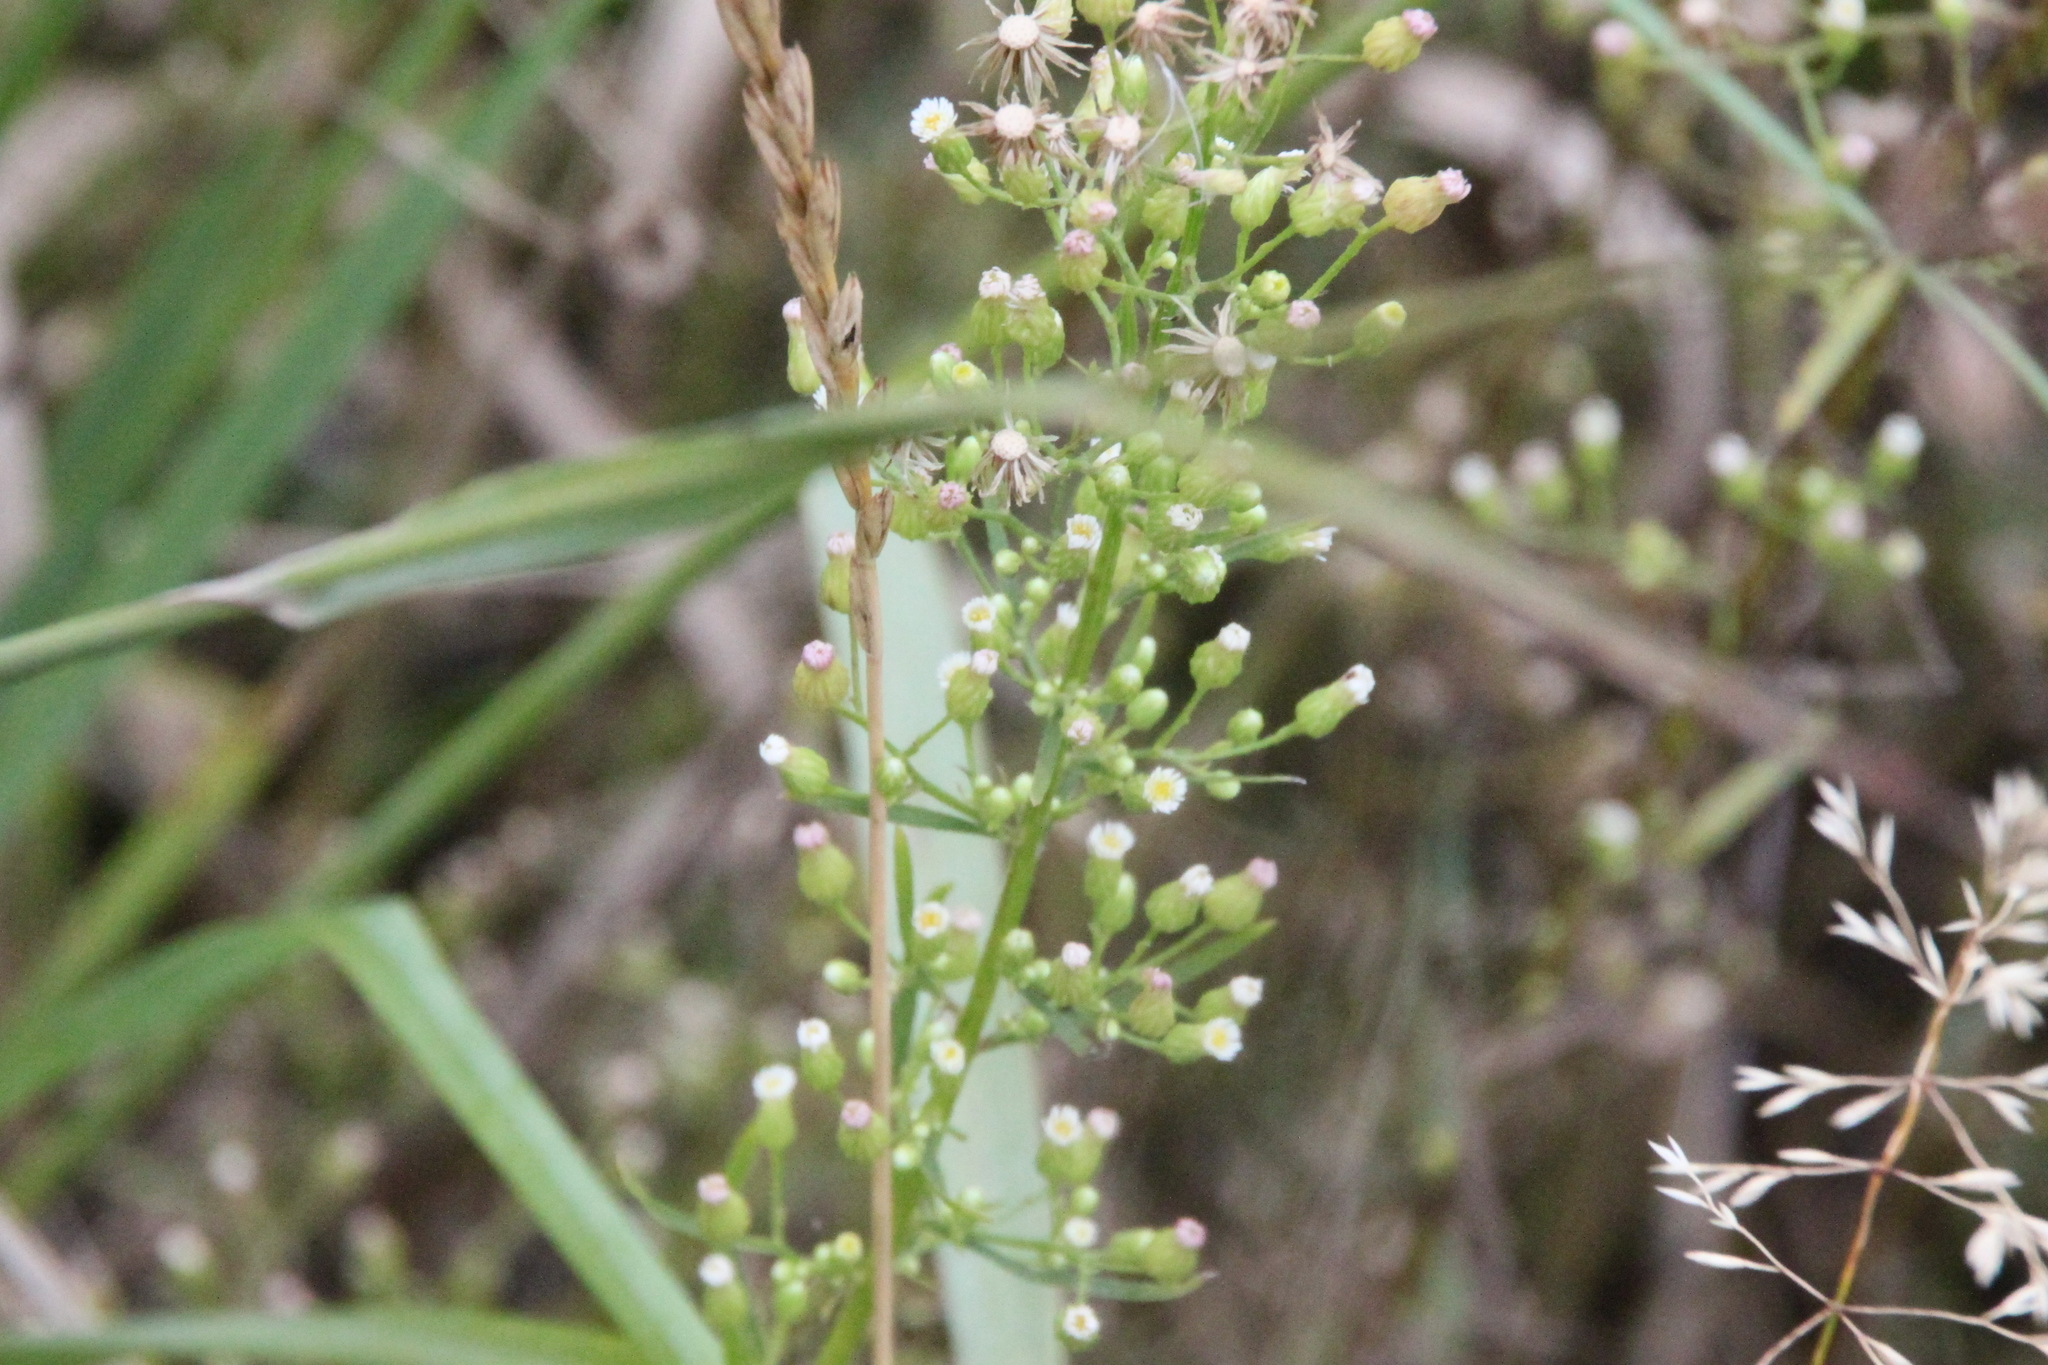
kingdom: Plantae
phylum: Tracheophyta
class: Magnoliopsida
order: Asterales
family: Asteraceae
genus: Erigeron
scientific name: Erigeron canadensis
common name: Canadian fleabane
